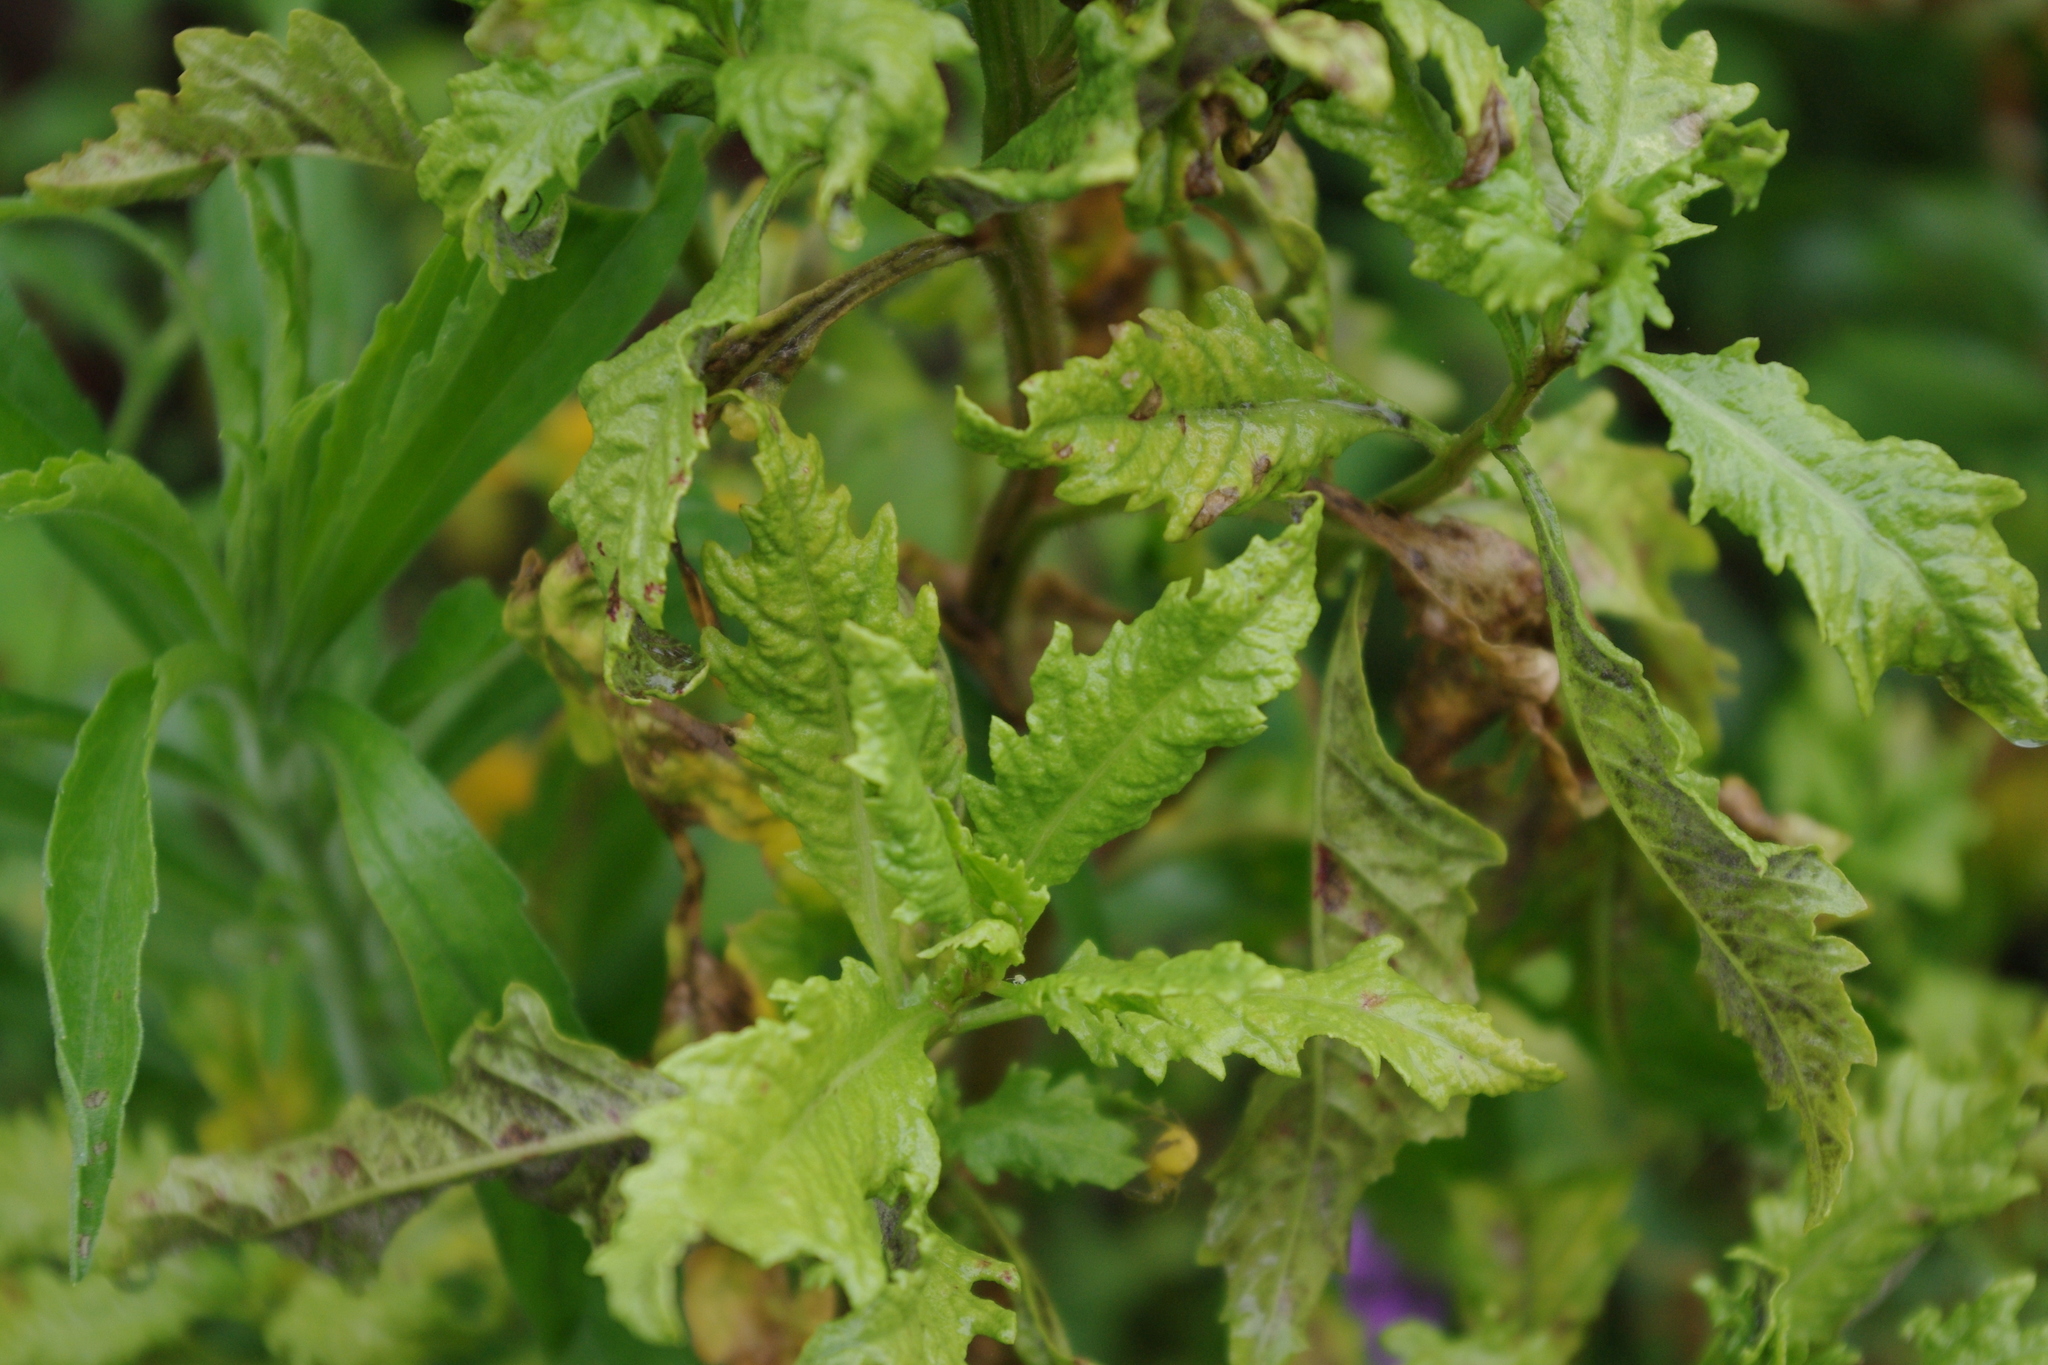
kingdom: Plantae
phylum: Tracheophyta
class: Magnoliopsida
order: Caryophyllales
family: Amaranthaceae
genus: Dysphania
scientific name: Dysphania ambrosioides
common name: Wormseed
